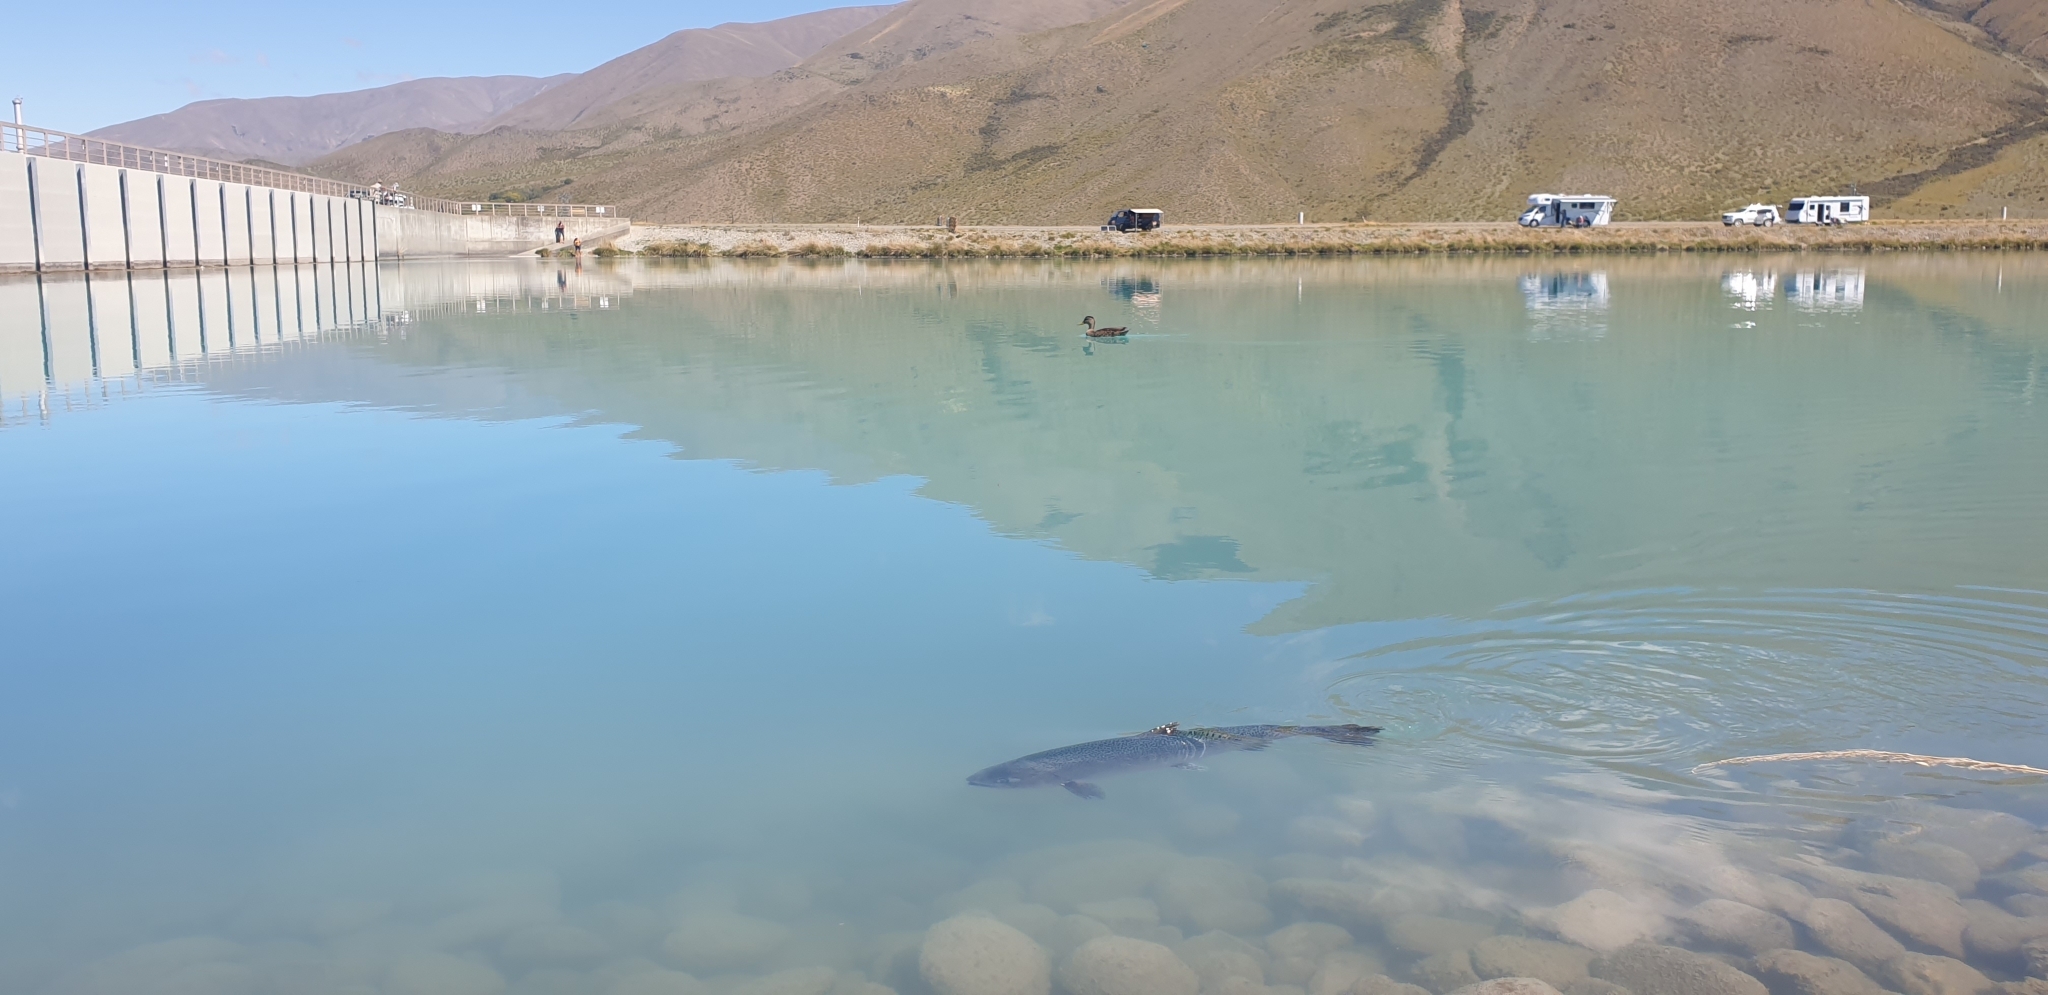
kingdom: Animalia
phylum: Chordata
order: Salmoniformes
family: Salmonidae
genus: Oncorhynchus
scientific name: Oncorhynchus mykiss
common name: Rainbow trout
